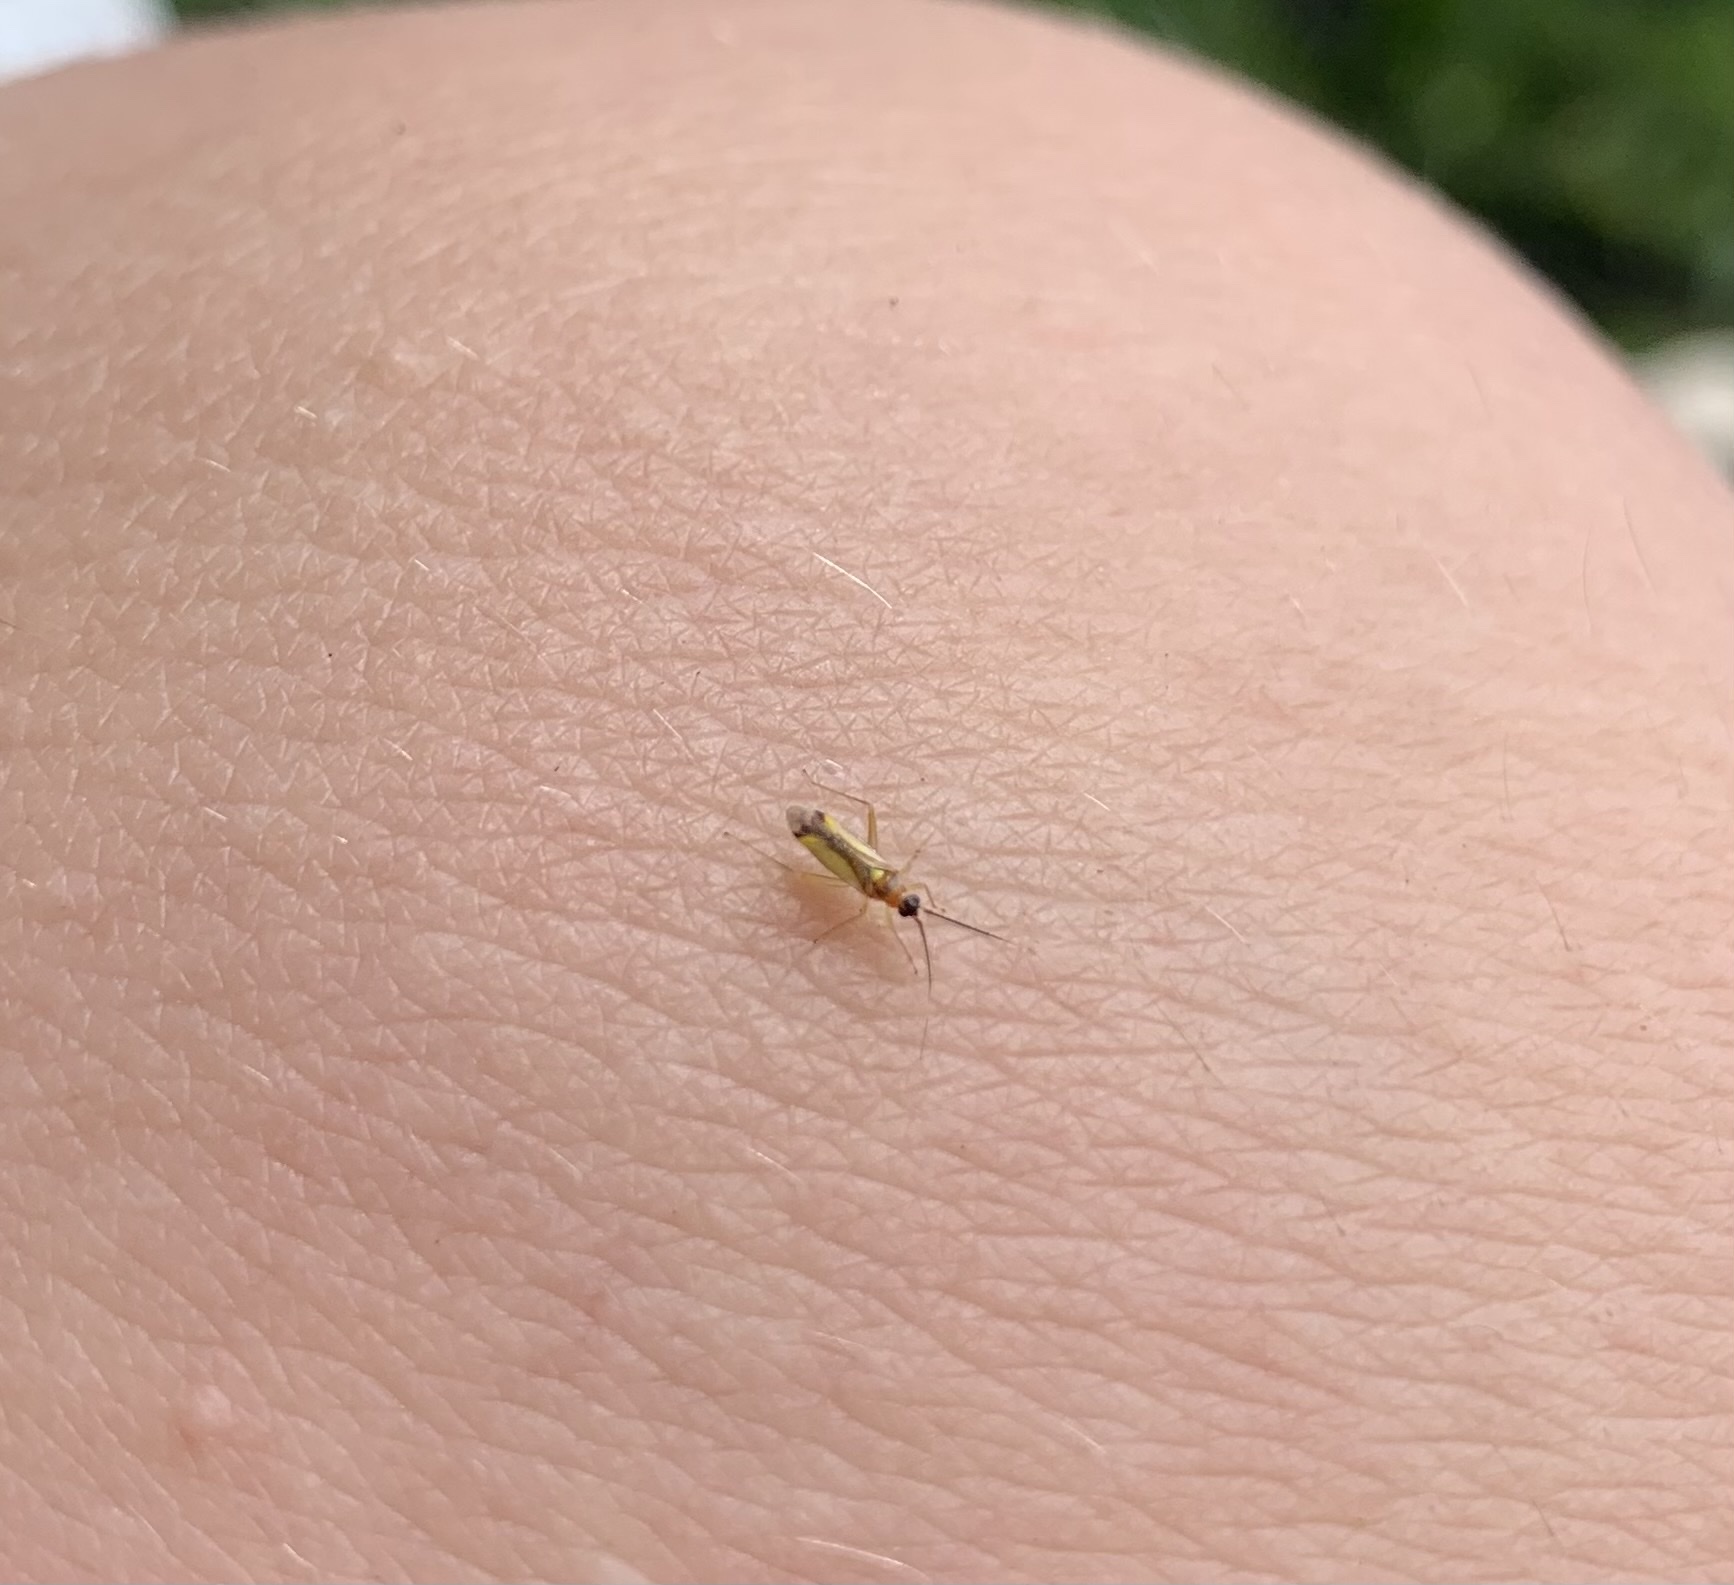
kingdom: Animalia
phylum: Arthropoda
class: Insecta
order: Hemiptera
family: Miridae
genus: Campyloneura
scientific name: Campyloneura virgula
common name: Predatory bug
